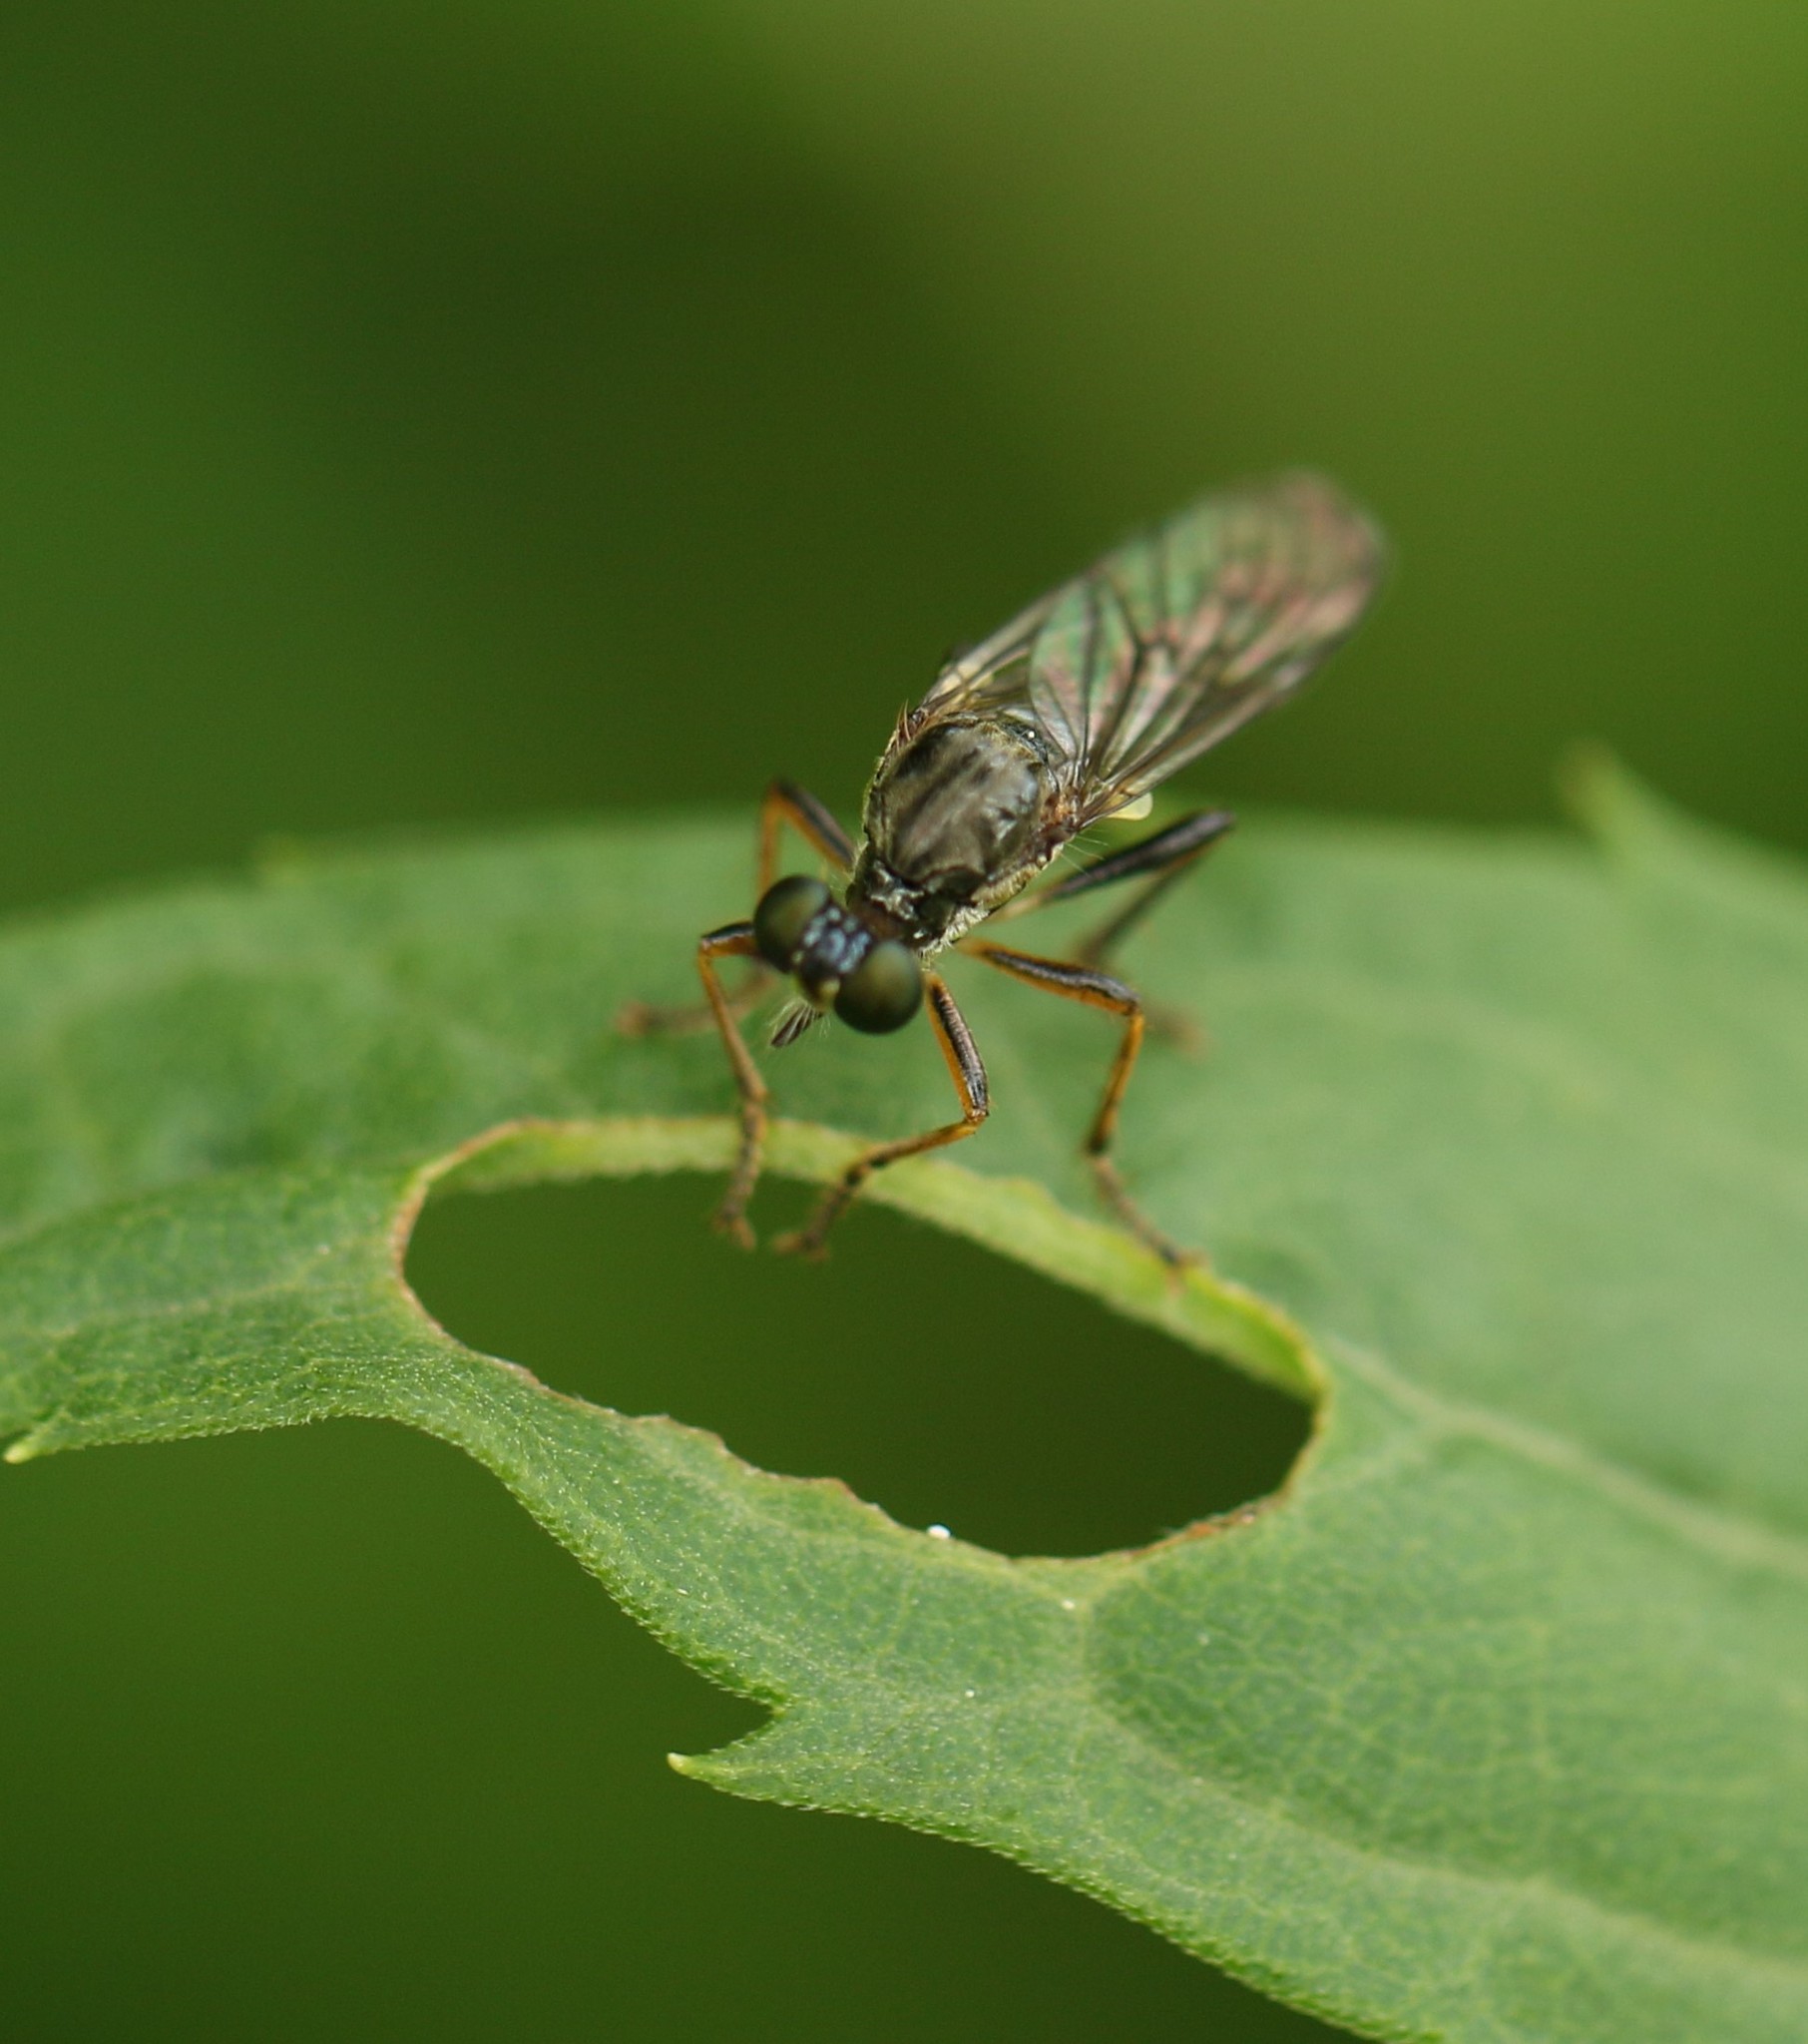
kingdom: Animalia
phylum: Arthropoda
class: Insecta
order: Diptera
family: Asilidae
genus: Dioctria
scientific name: Dioctria hyalipennis
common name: Stripe-legged robberfly
